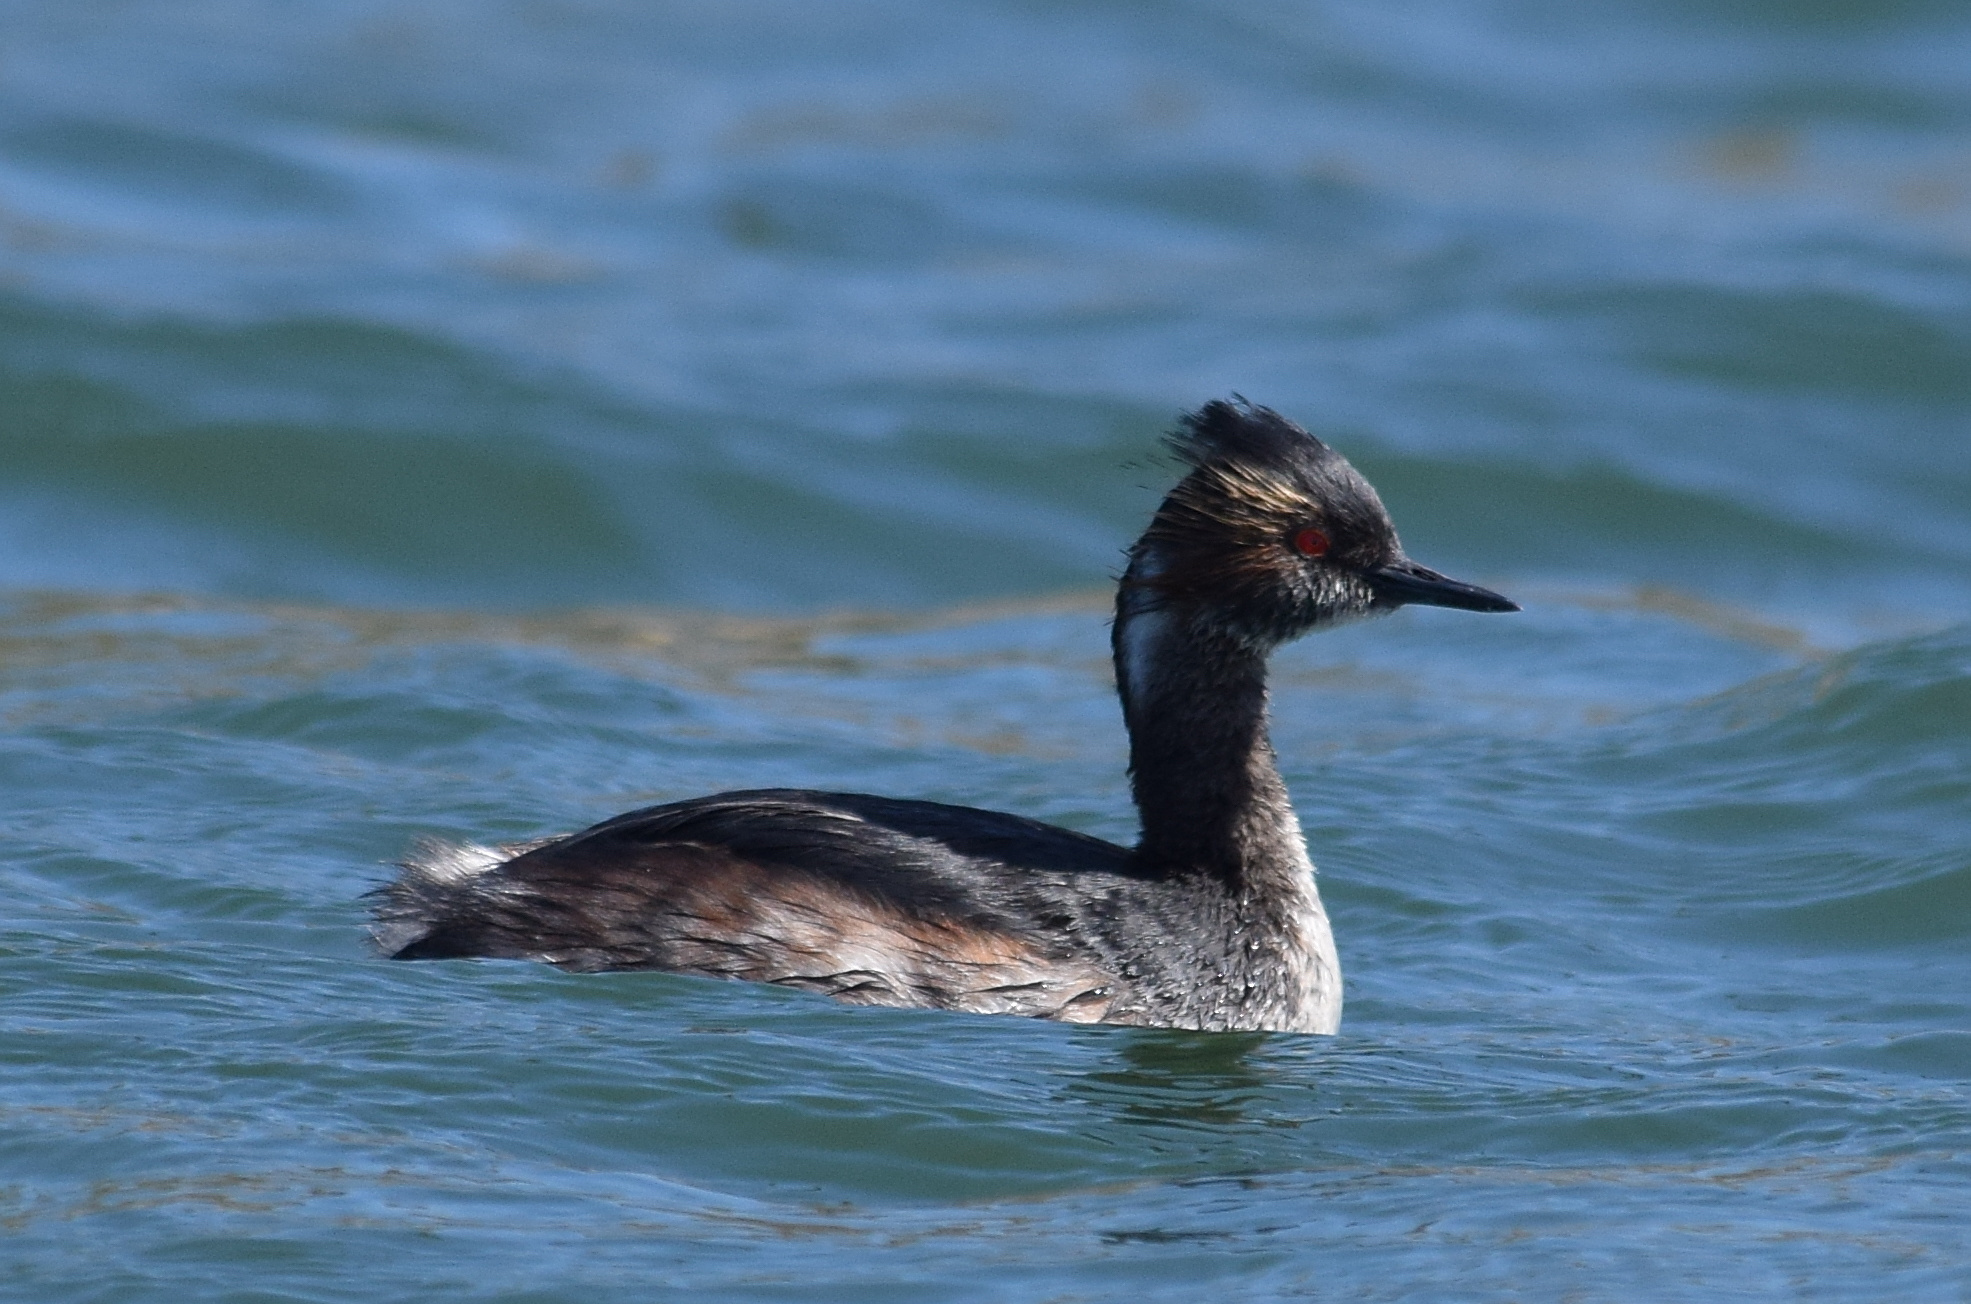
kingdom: Animalia
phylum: Chordata
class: Aves
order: Podicipediformes
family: Podicipedidae
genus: Podiceps
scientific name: Podiceps nigricollis
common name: Black-necked grebe
